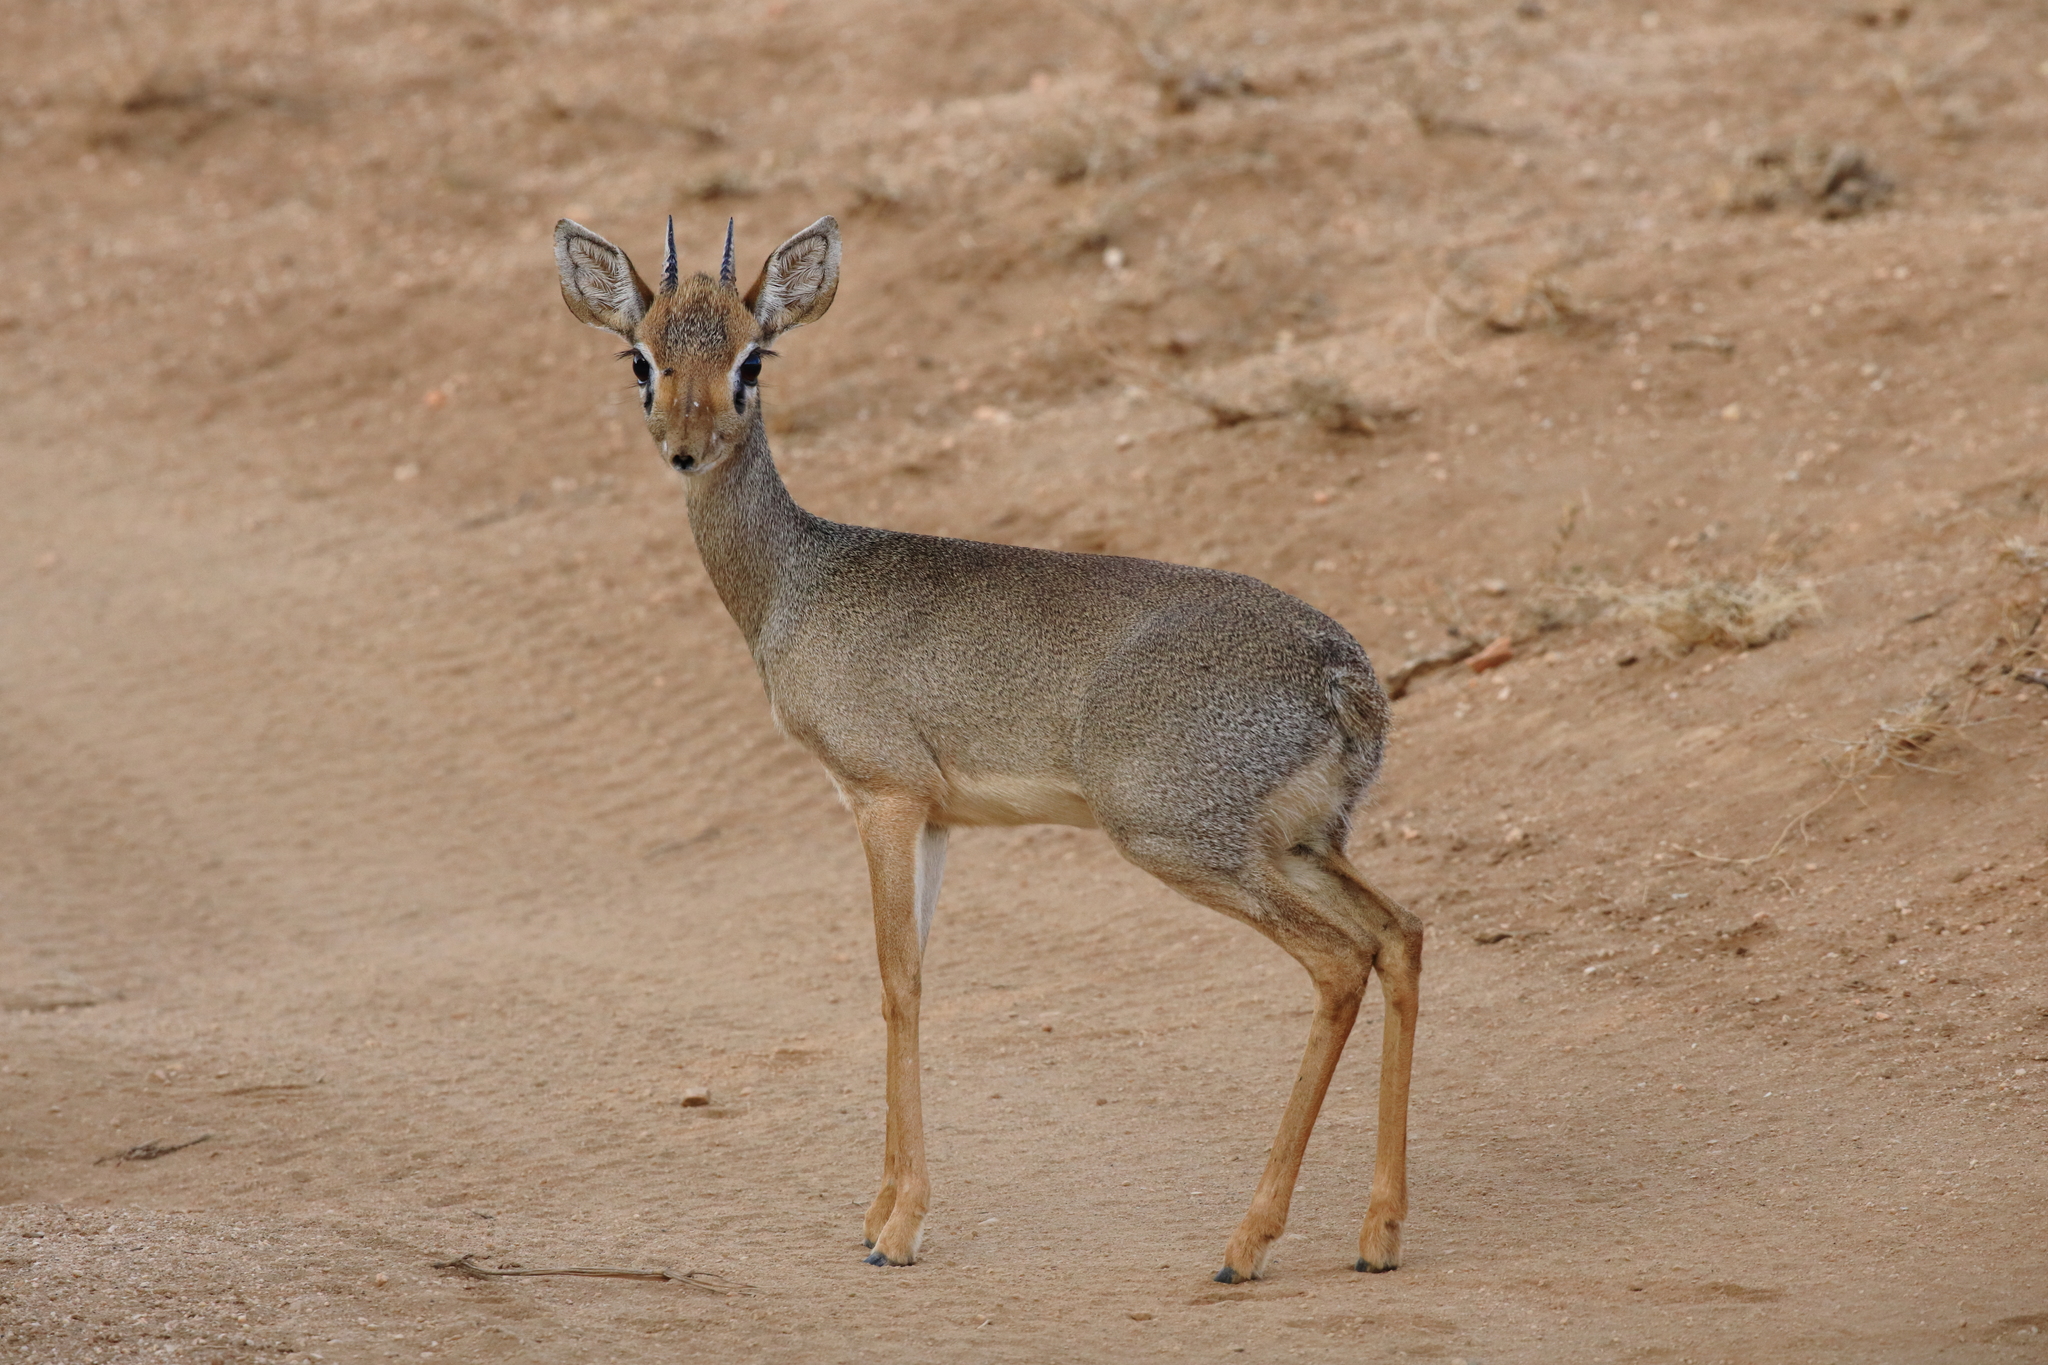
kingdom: Animalia
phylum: Chordata
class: Mammalia
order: Artiodactyla
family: Bovidae
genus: Madoqua
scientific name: Madoqua kirkii
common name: Kirk's dik-dik
